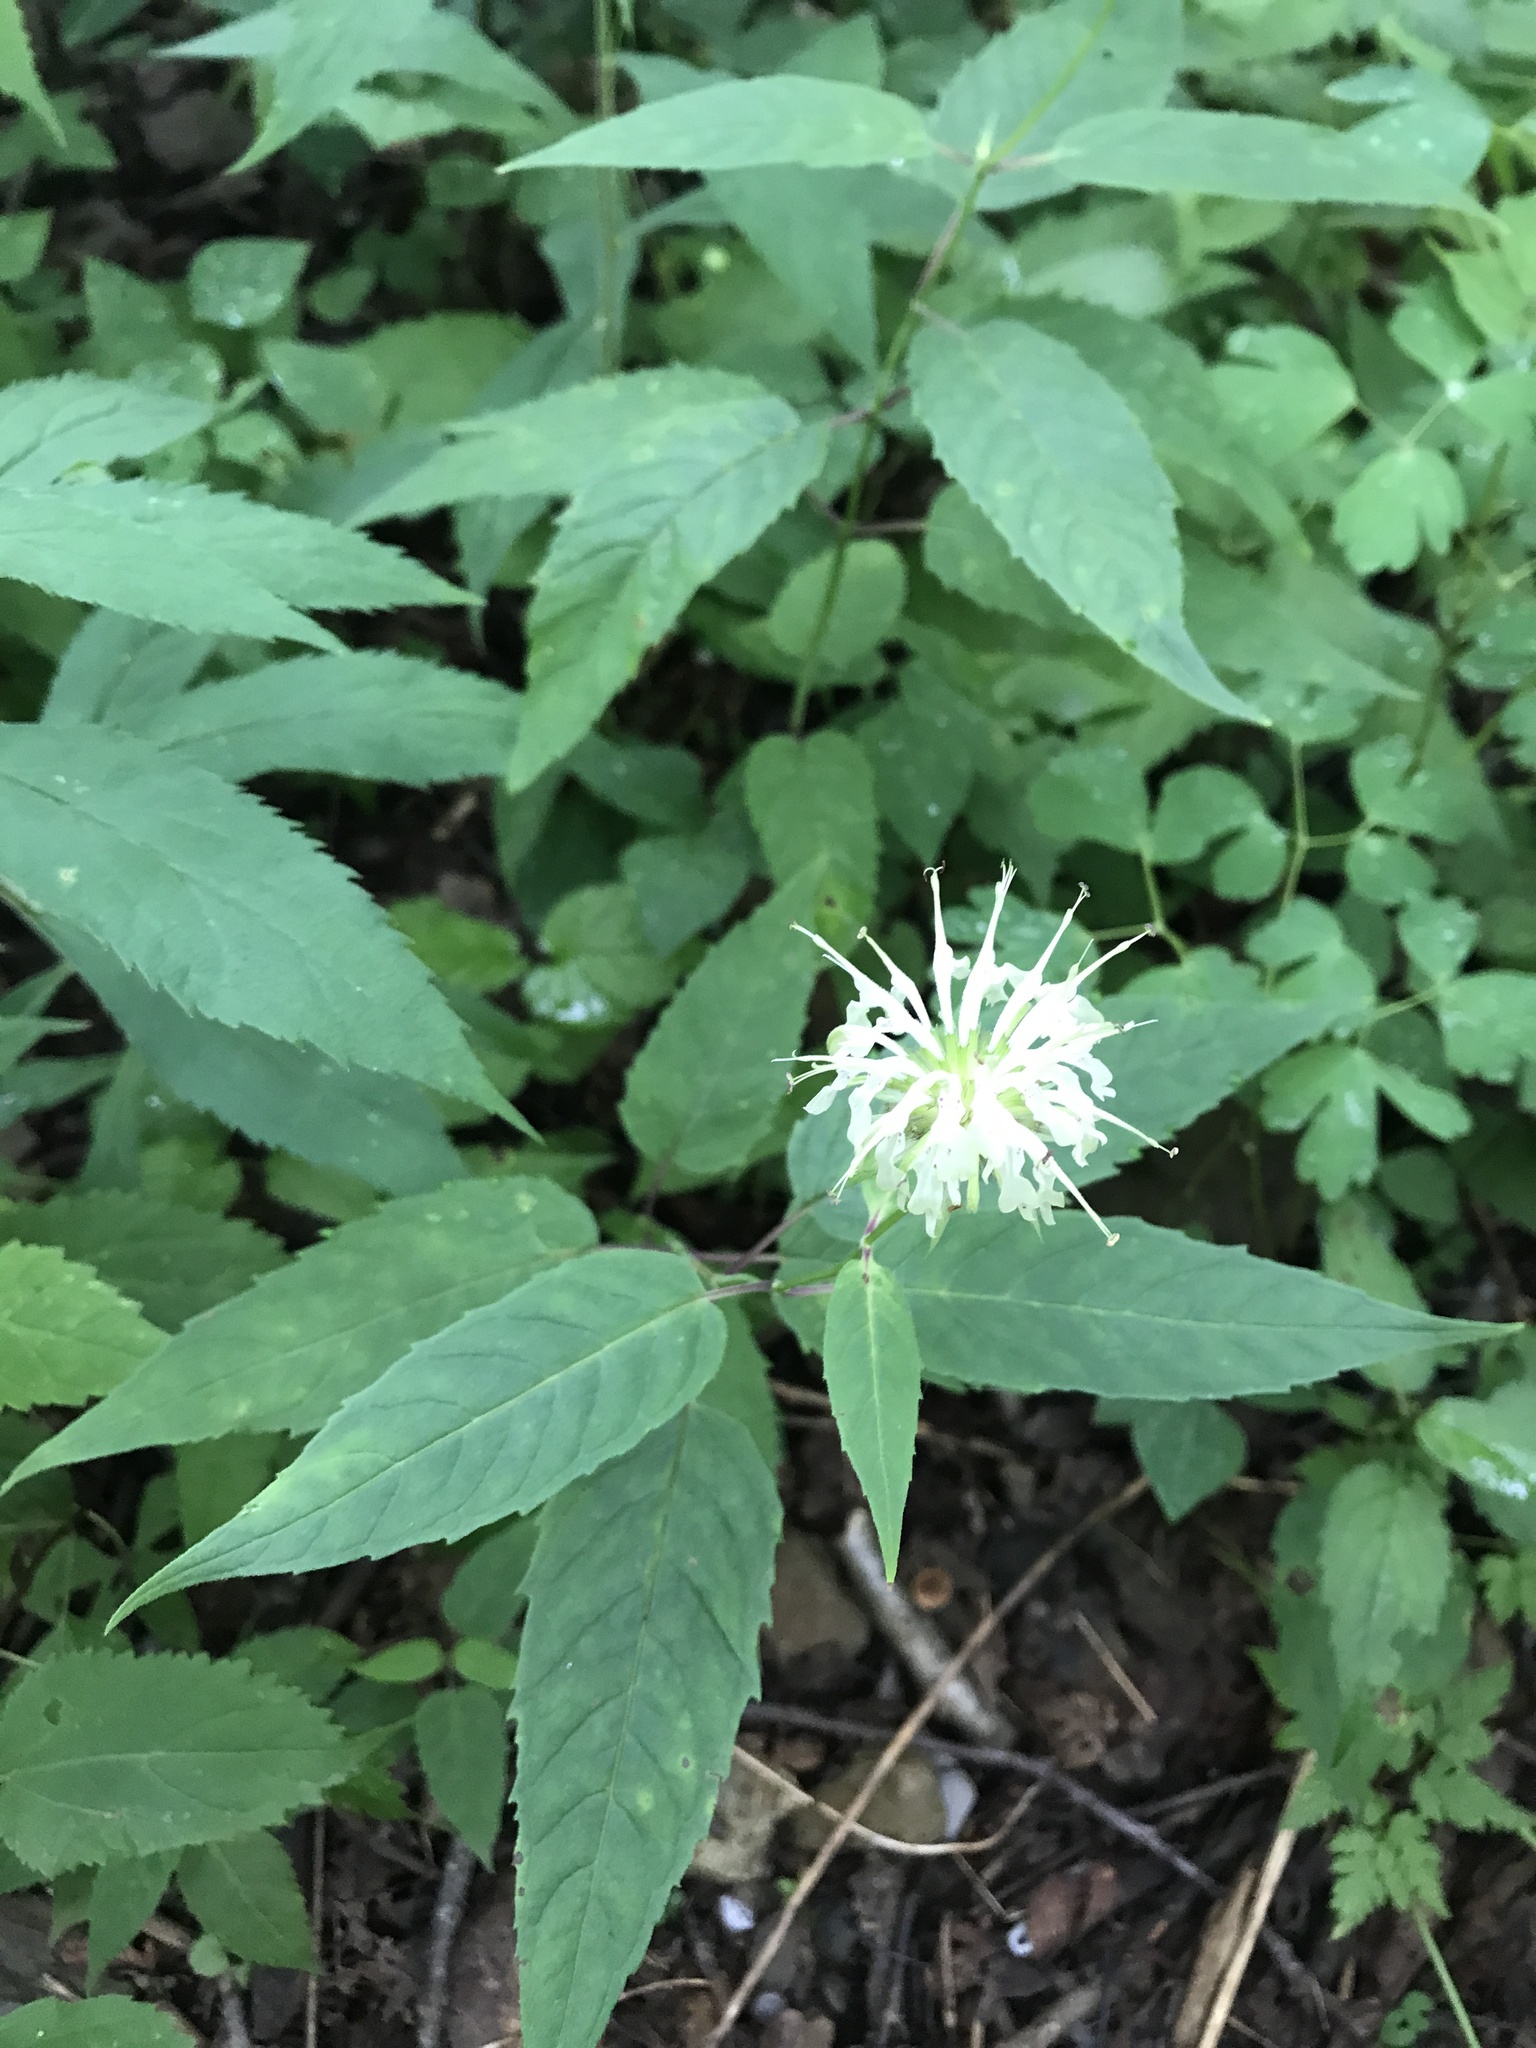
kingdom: Plantae
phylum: Tracheophyta
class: Magnoliopsida
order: Lamiales
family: Lamiaceae
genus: Monarda
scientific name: Monarda clinopodia
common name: Basil beebalm
